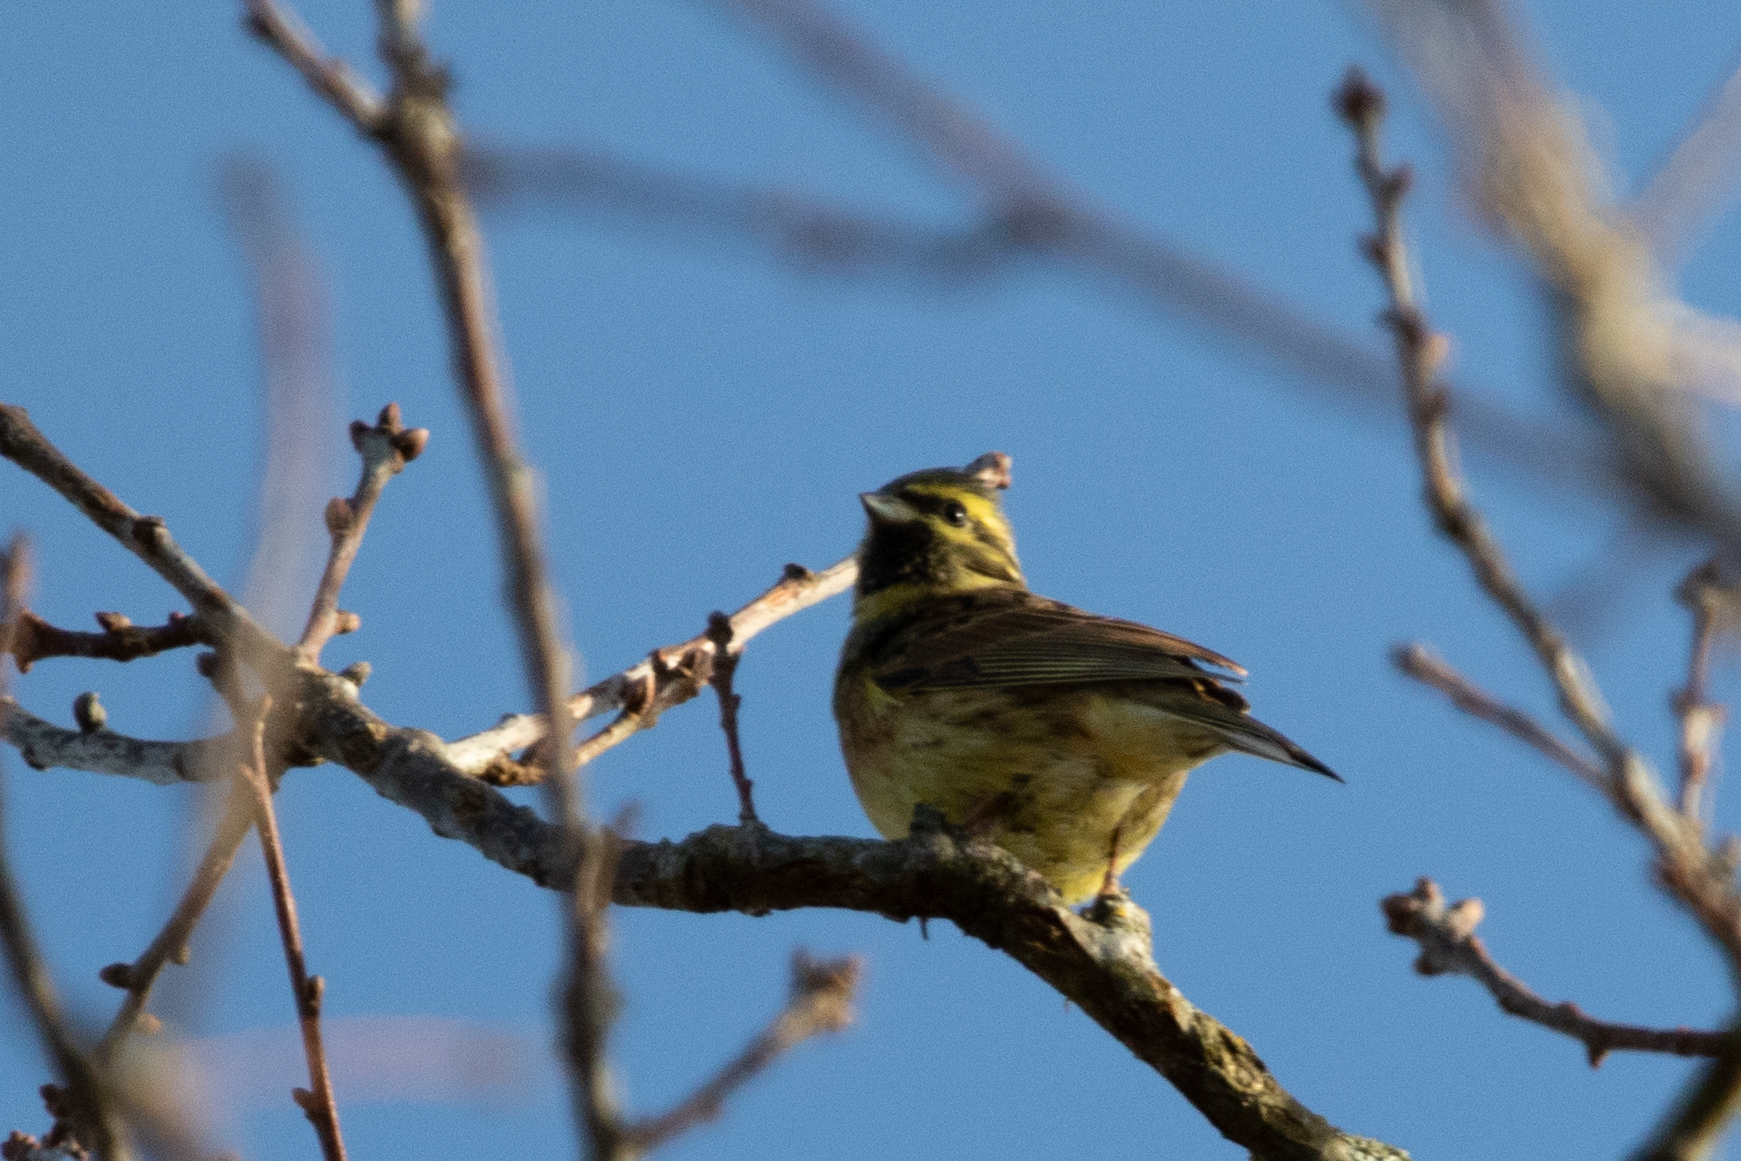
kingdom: Animalia
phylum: Chordata
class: Aves
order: Passeriformes
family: Emberizidae
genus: Emberiza
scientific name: Emberiza cirlus
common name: Cirl bunting
